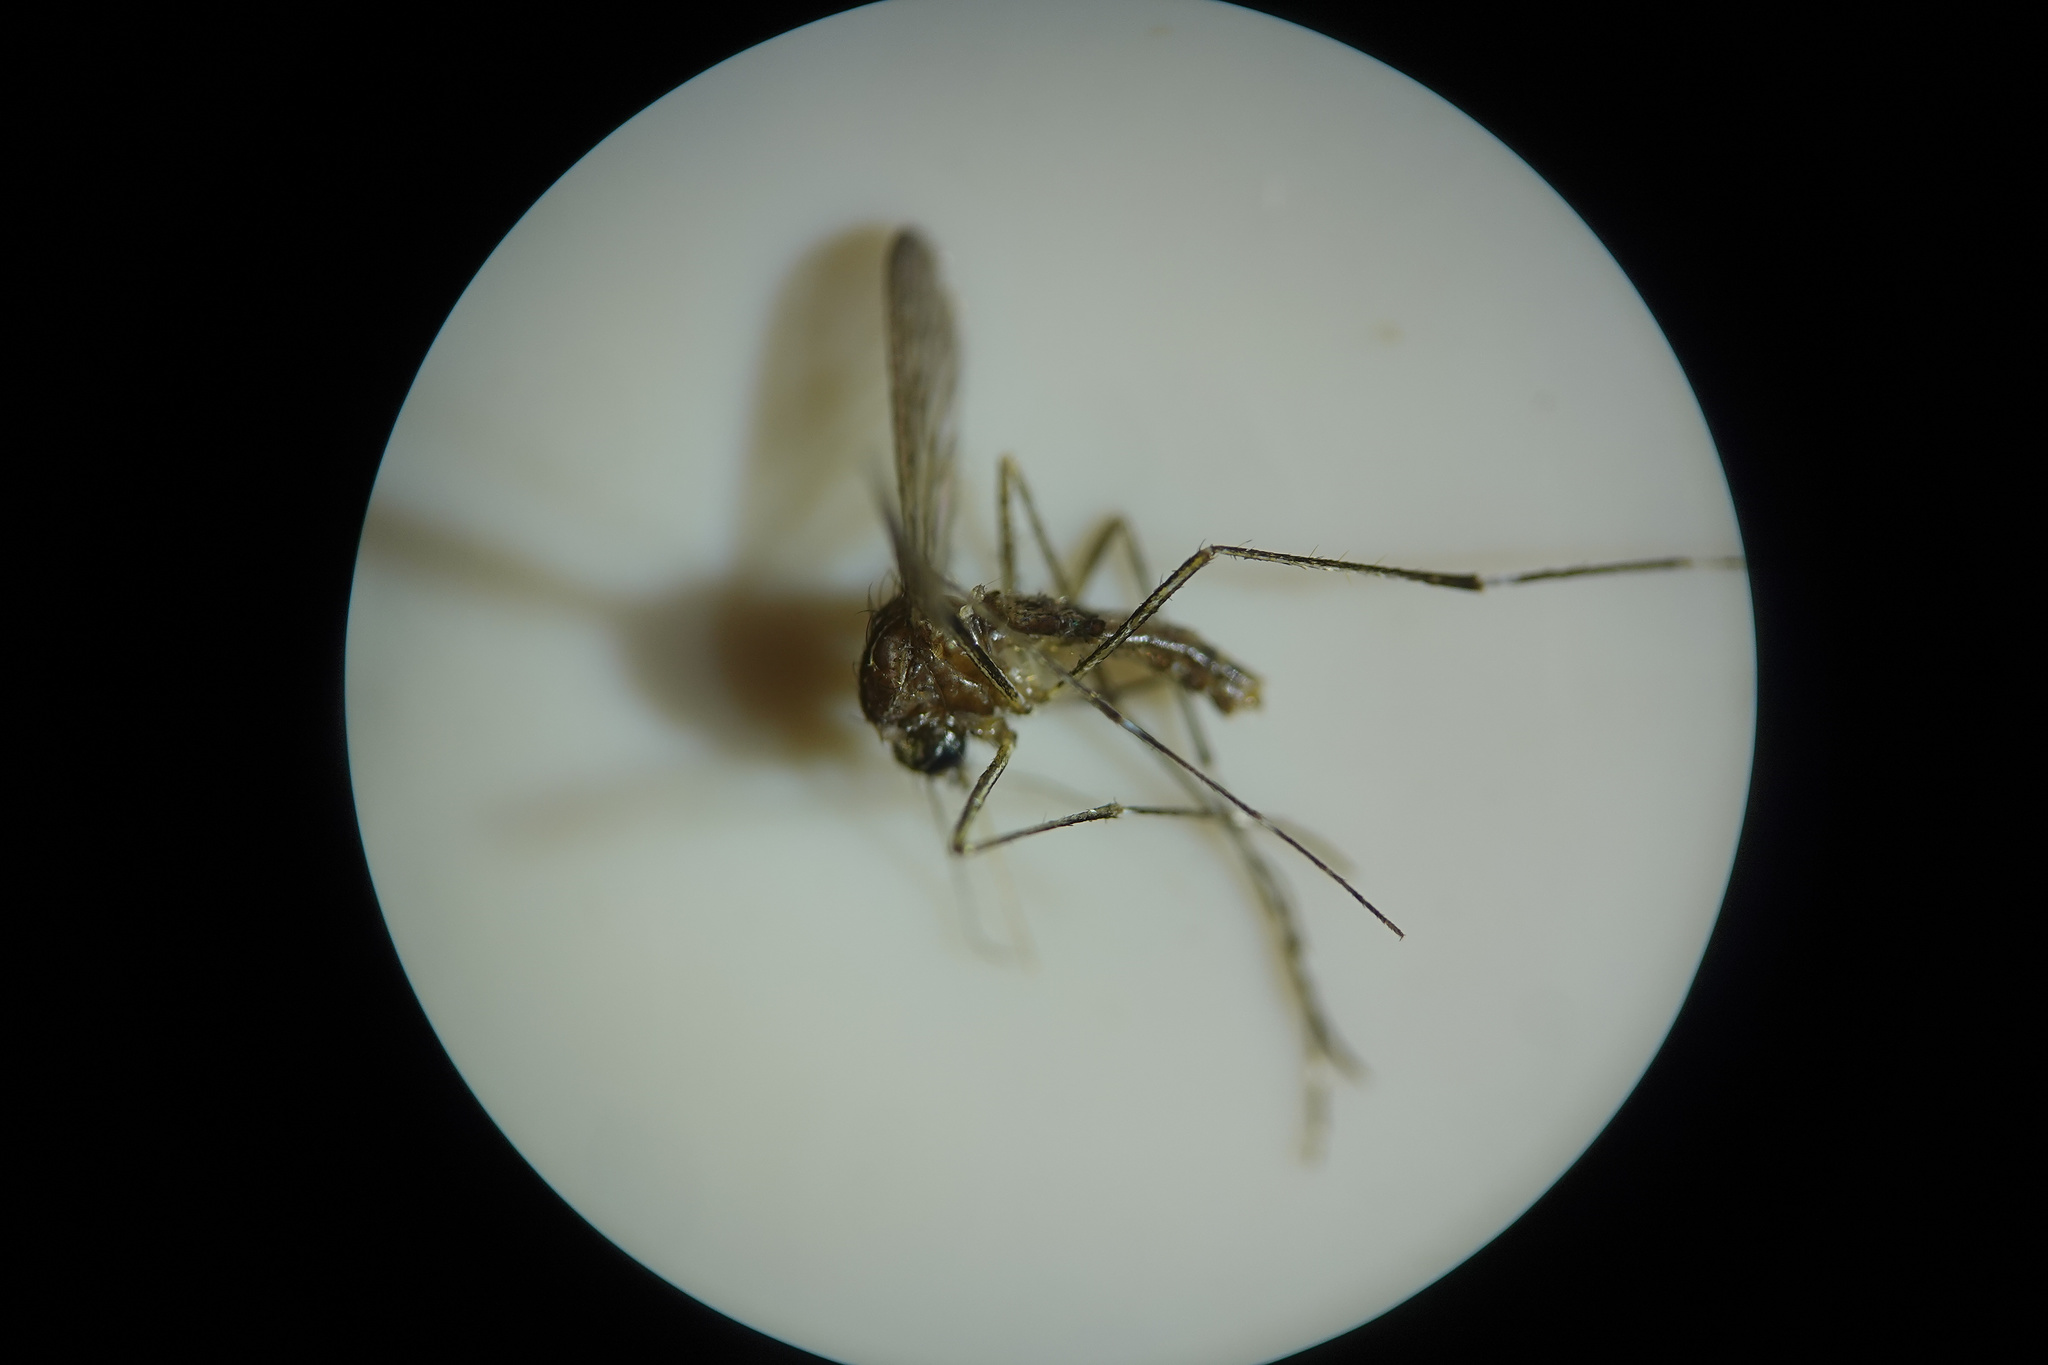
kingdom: Animalia
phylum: Arthropoda
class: Insecta
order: Diptera
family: Culicidae
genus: Aedes
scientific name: Aedes notoscriptus
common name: Australian backyard mosquito
